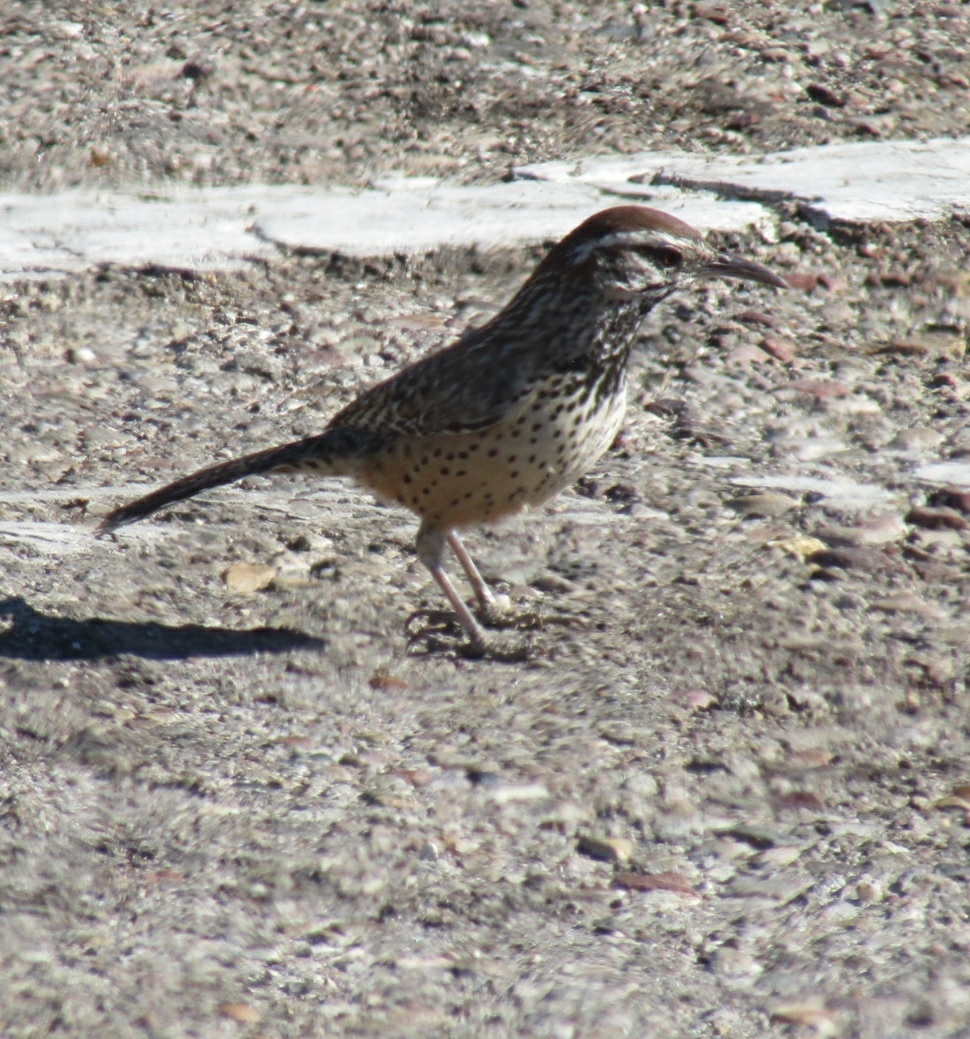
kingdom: Animalia
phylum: Chordata
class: Aves
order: Passeriformes
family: Troglodytidae
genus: Campylorhynchus
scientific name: Campylorhynchus brunneicapillus
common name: Cactus wren
